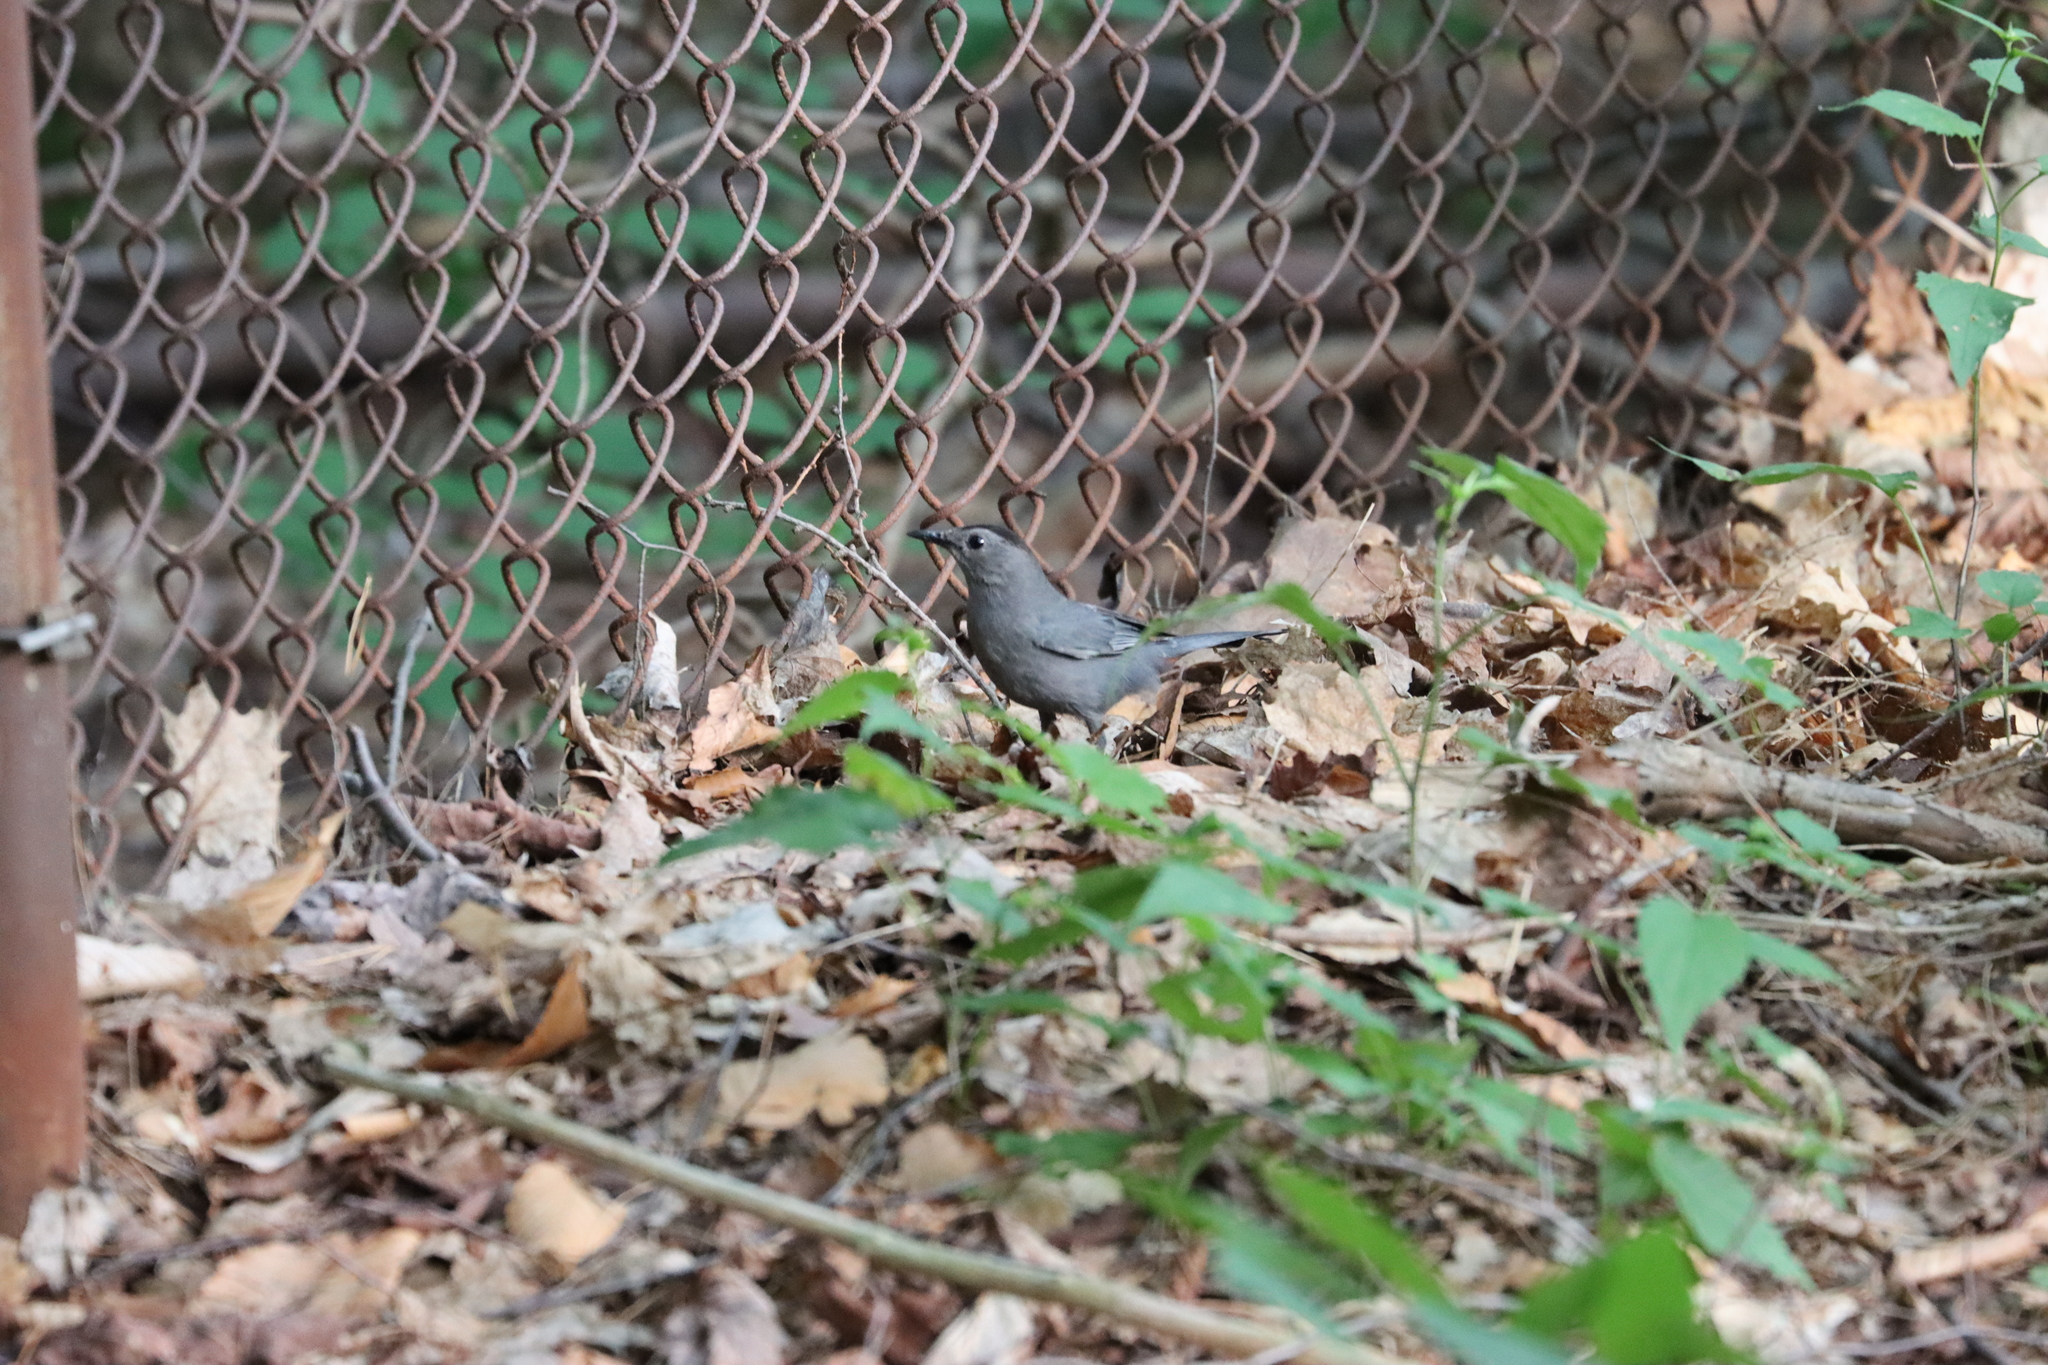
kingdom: Animalia
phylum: Chordata
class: Aves
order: Passeriformes
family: Mimidae
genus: Dumetella
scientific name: Dumetella carolinensis
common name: Gray catbird
